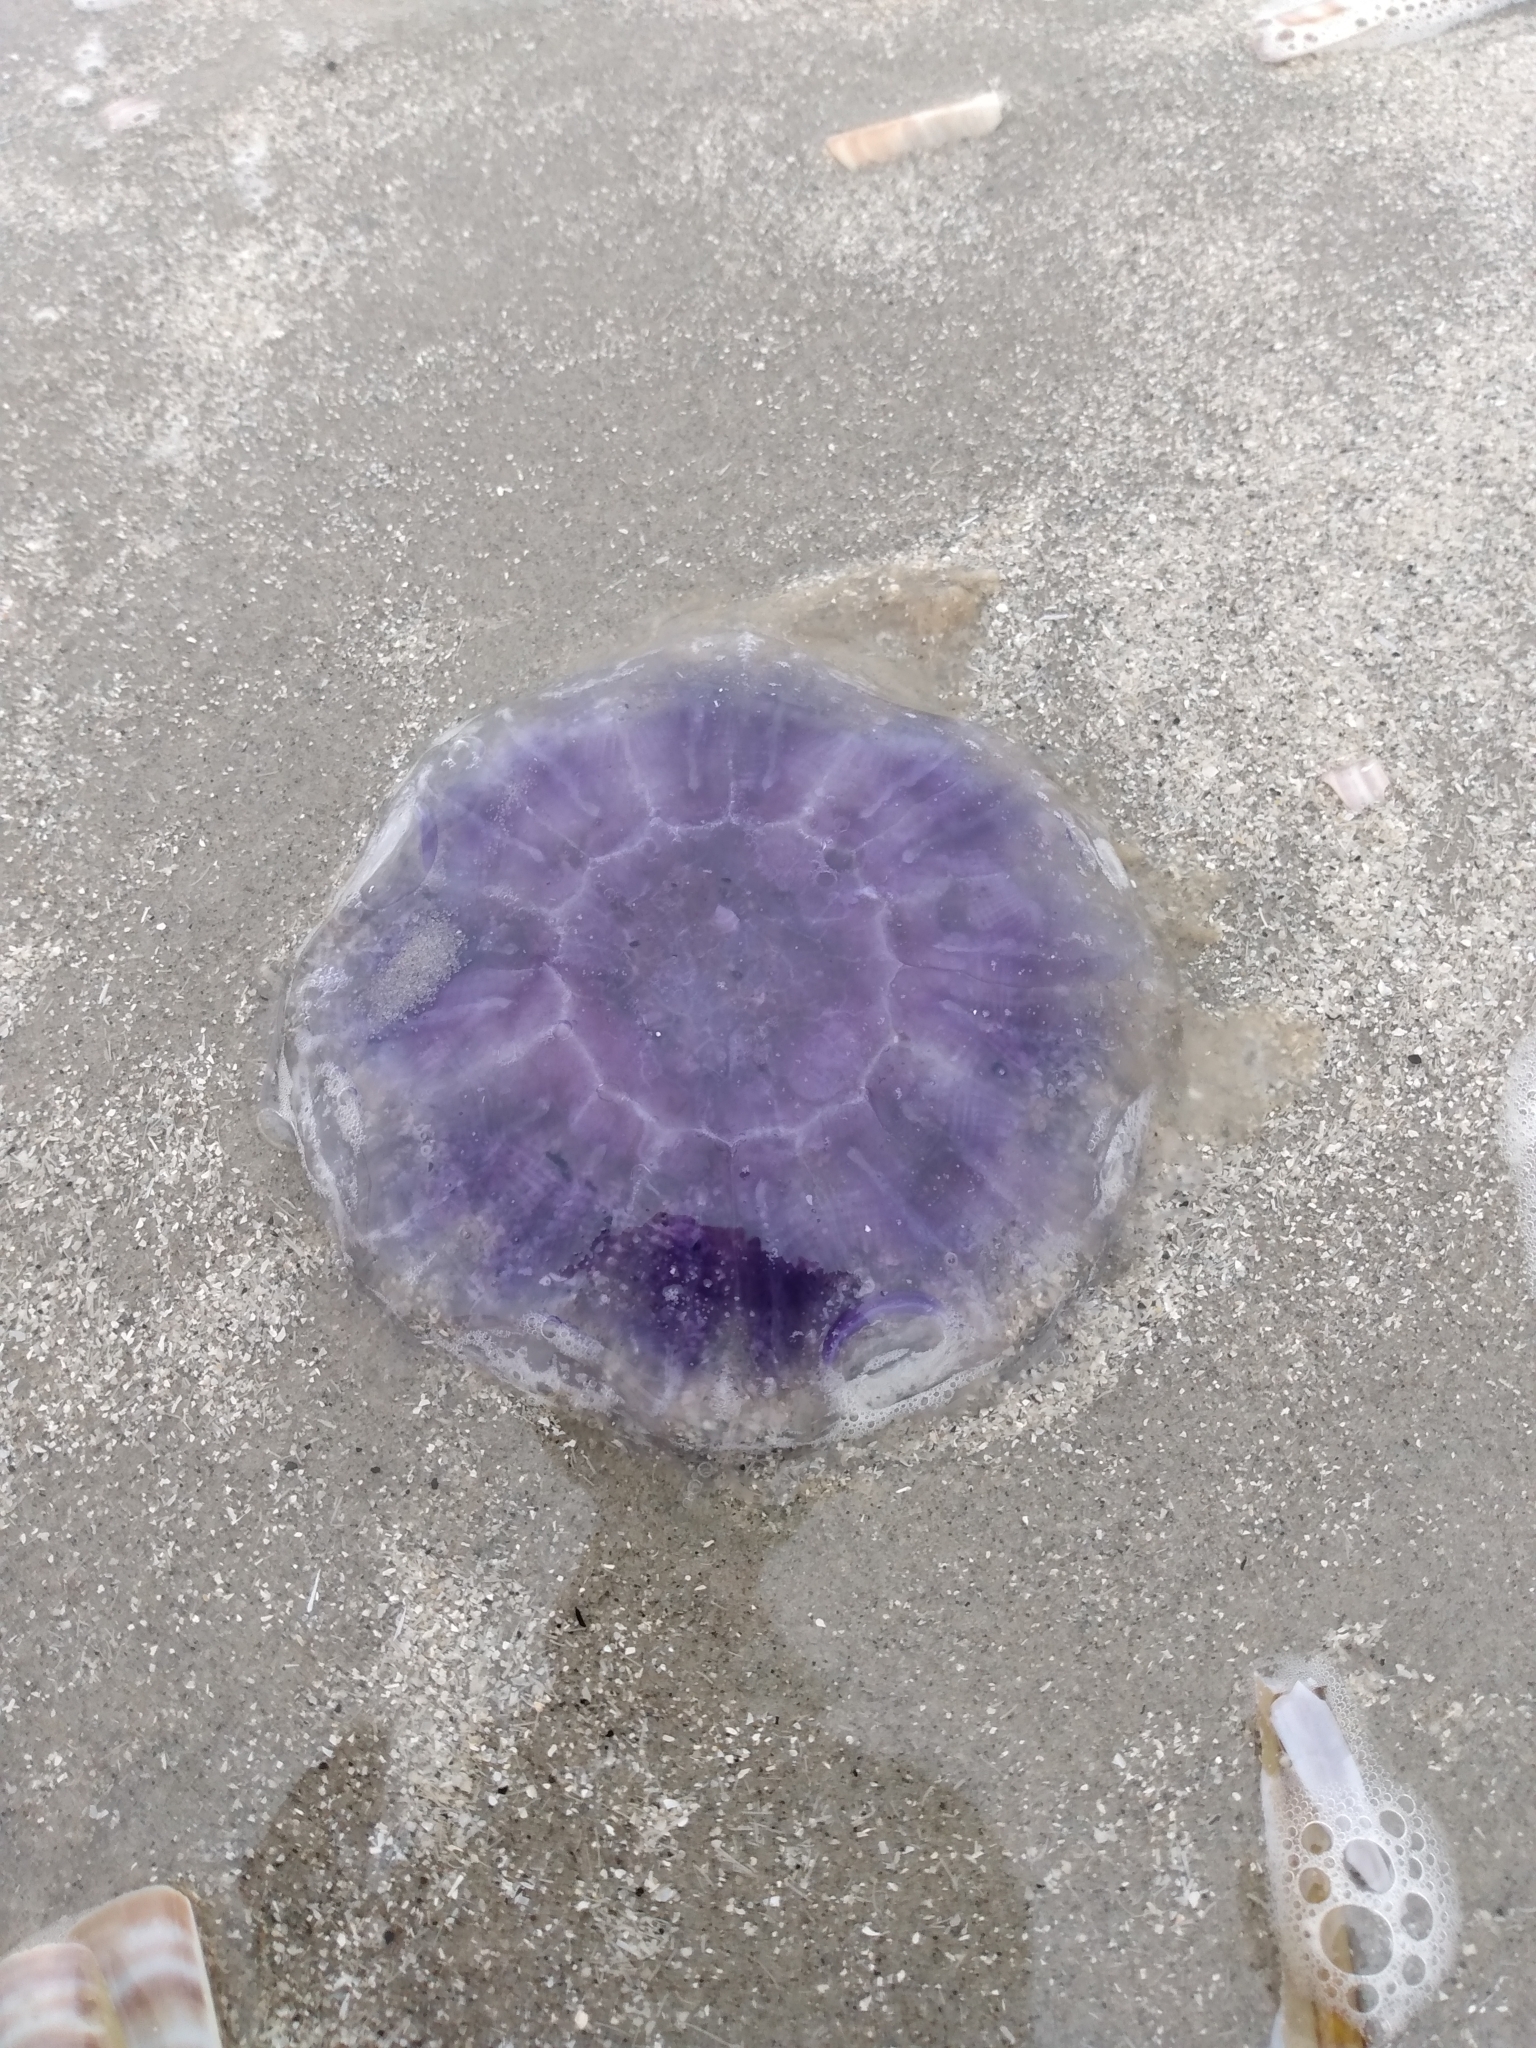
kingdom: Animalia
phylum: Cnidaria
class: Scyphozoa
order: Semaeostomeae
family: Cyaneidae
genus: Cyanea
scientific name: Cyanea lamarckii
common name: Blue jellyfish
